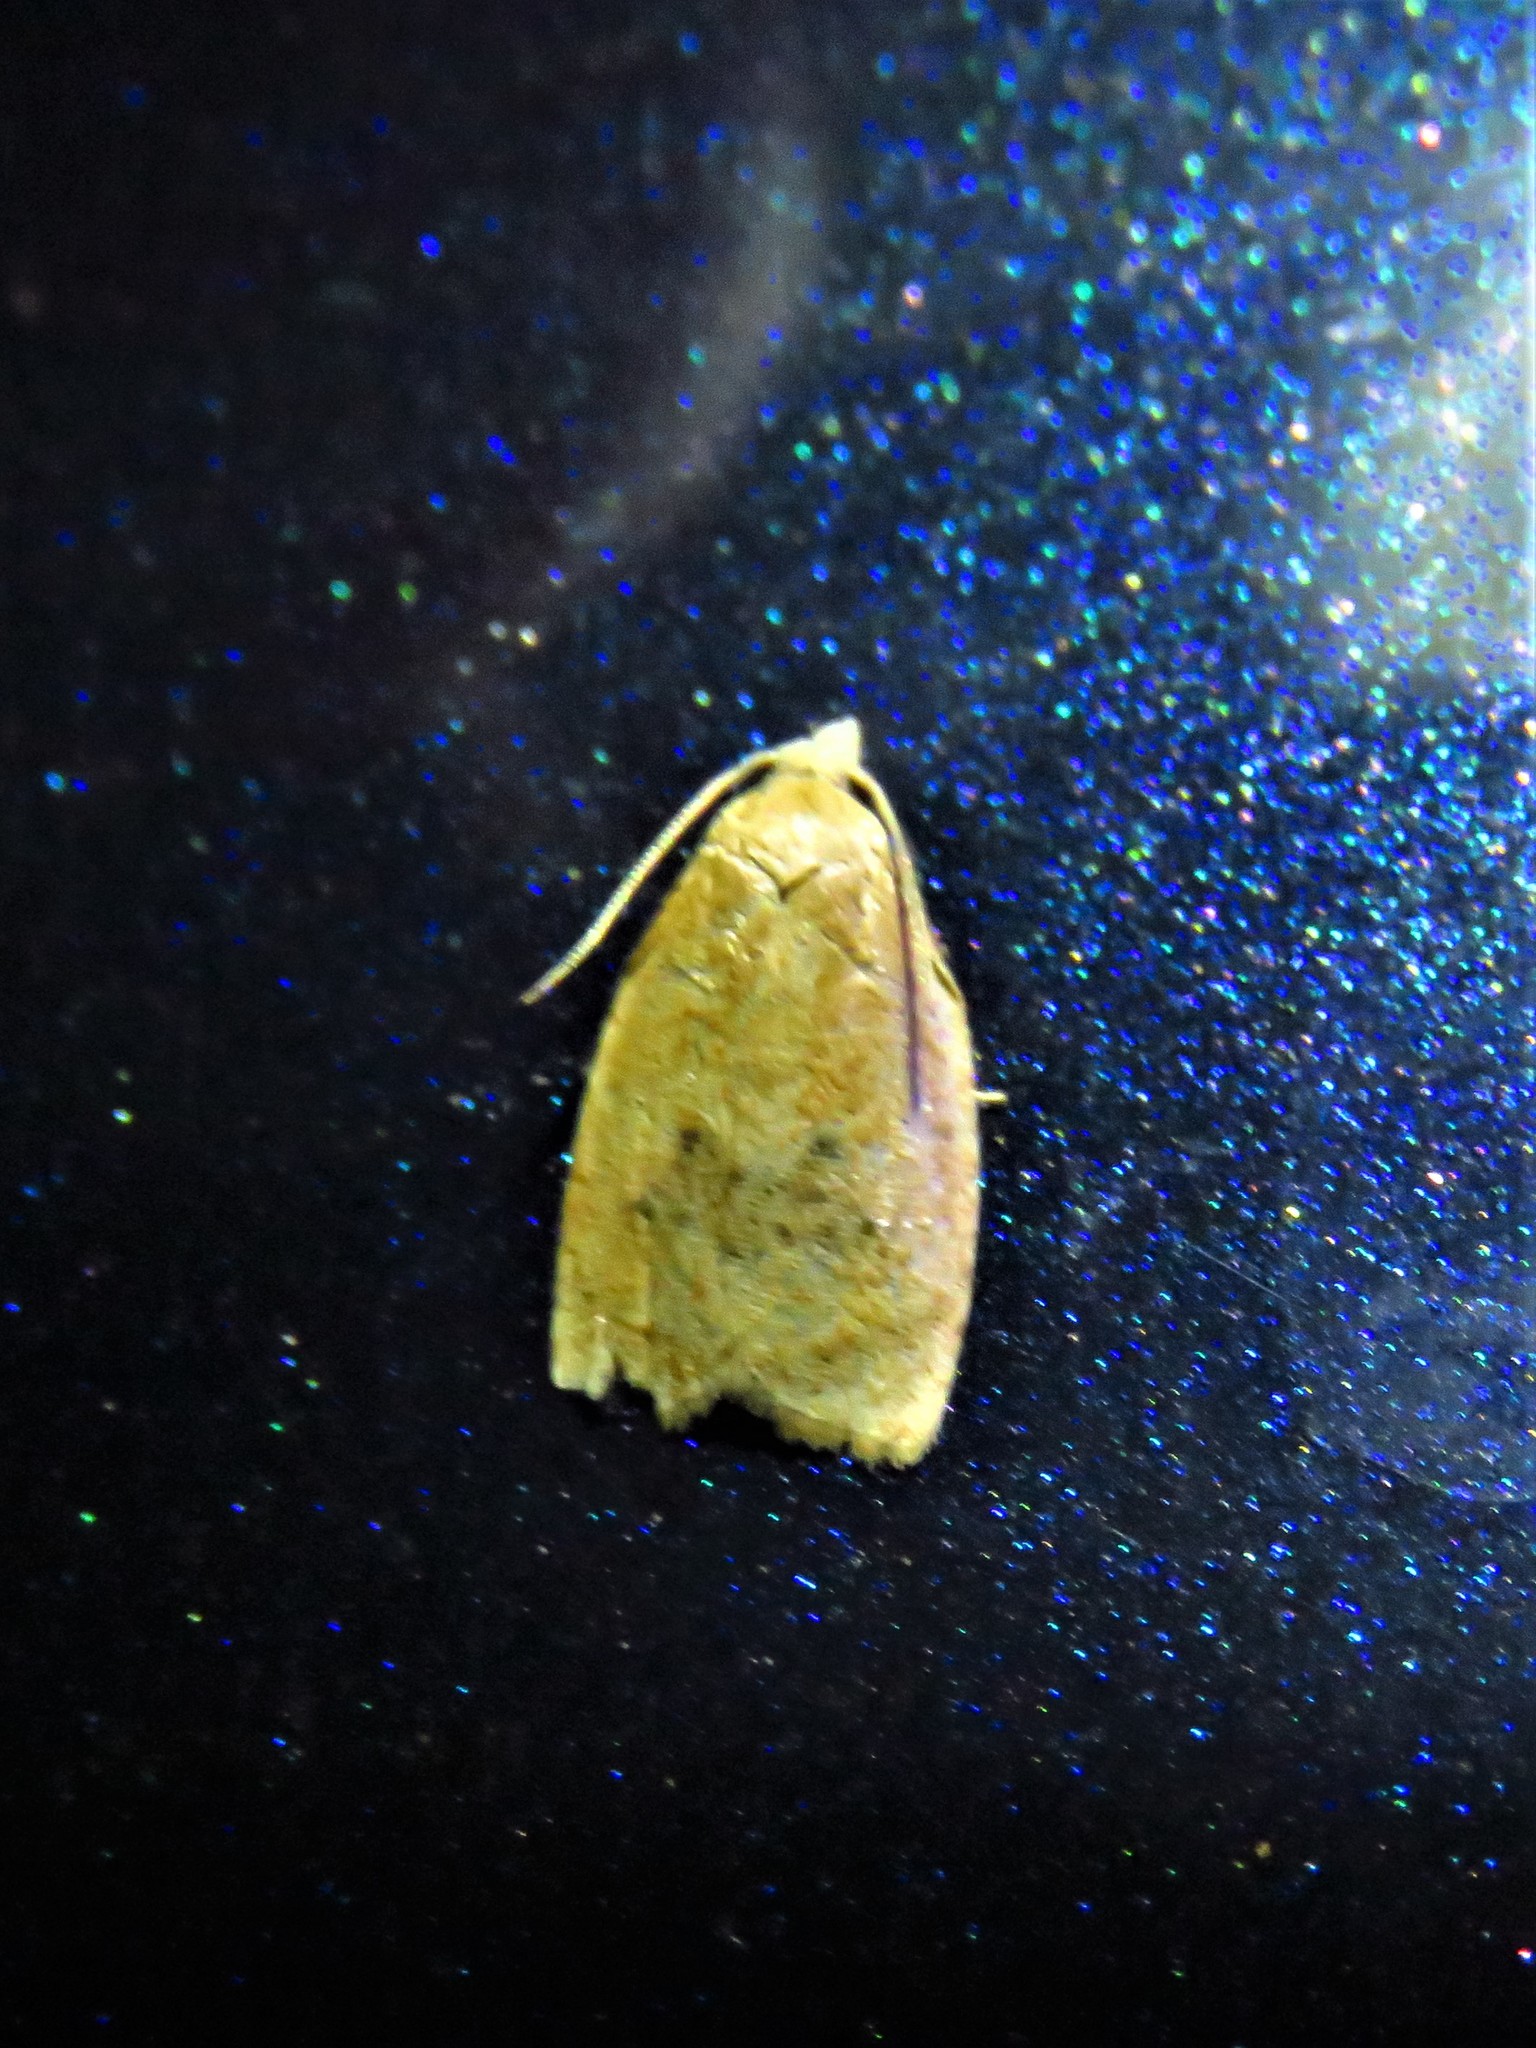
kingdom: Animalia
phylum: Arthropoda
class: Insecta
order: Lepidoptera
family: Tortricidae
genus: Sparganothoides
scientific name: Sparganothoides lentiginosana
